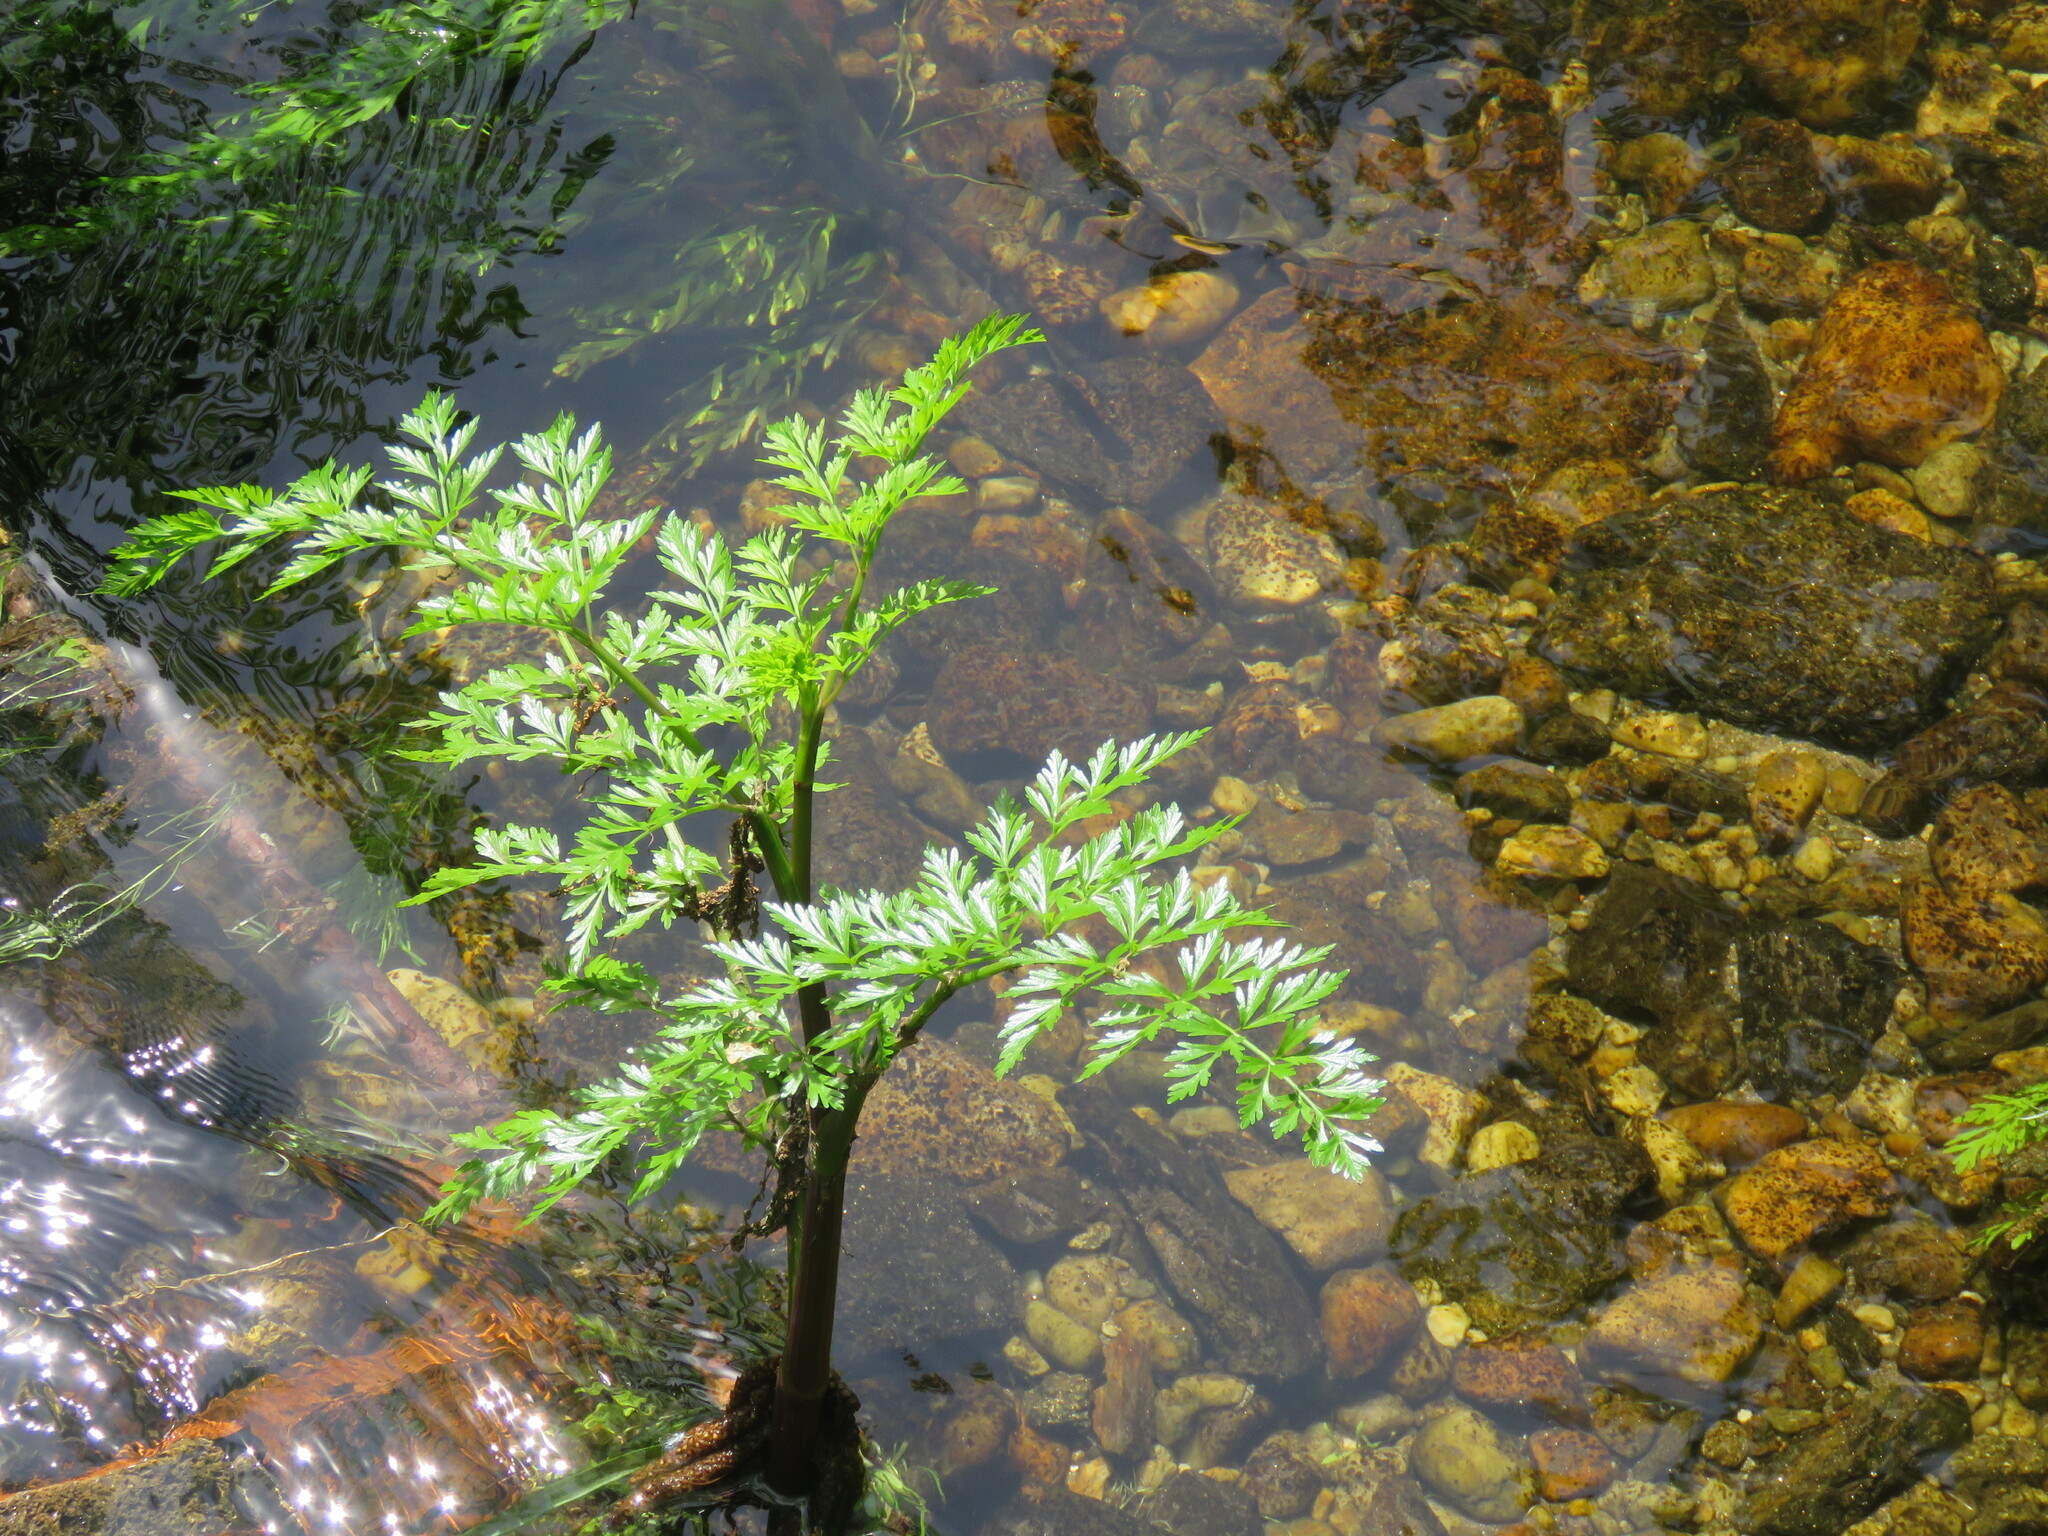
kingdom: Plantae
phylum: Tracheophyta
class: Magnoliopsida
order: Apiales
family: Apiaceae
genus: Oenanthe
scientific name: Oenanthe crocata
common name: Hemlock water-dropwort
